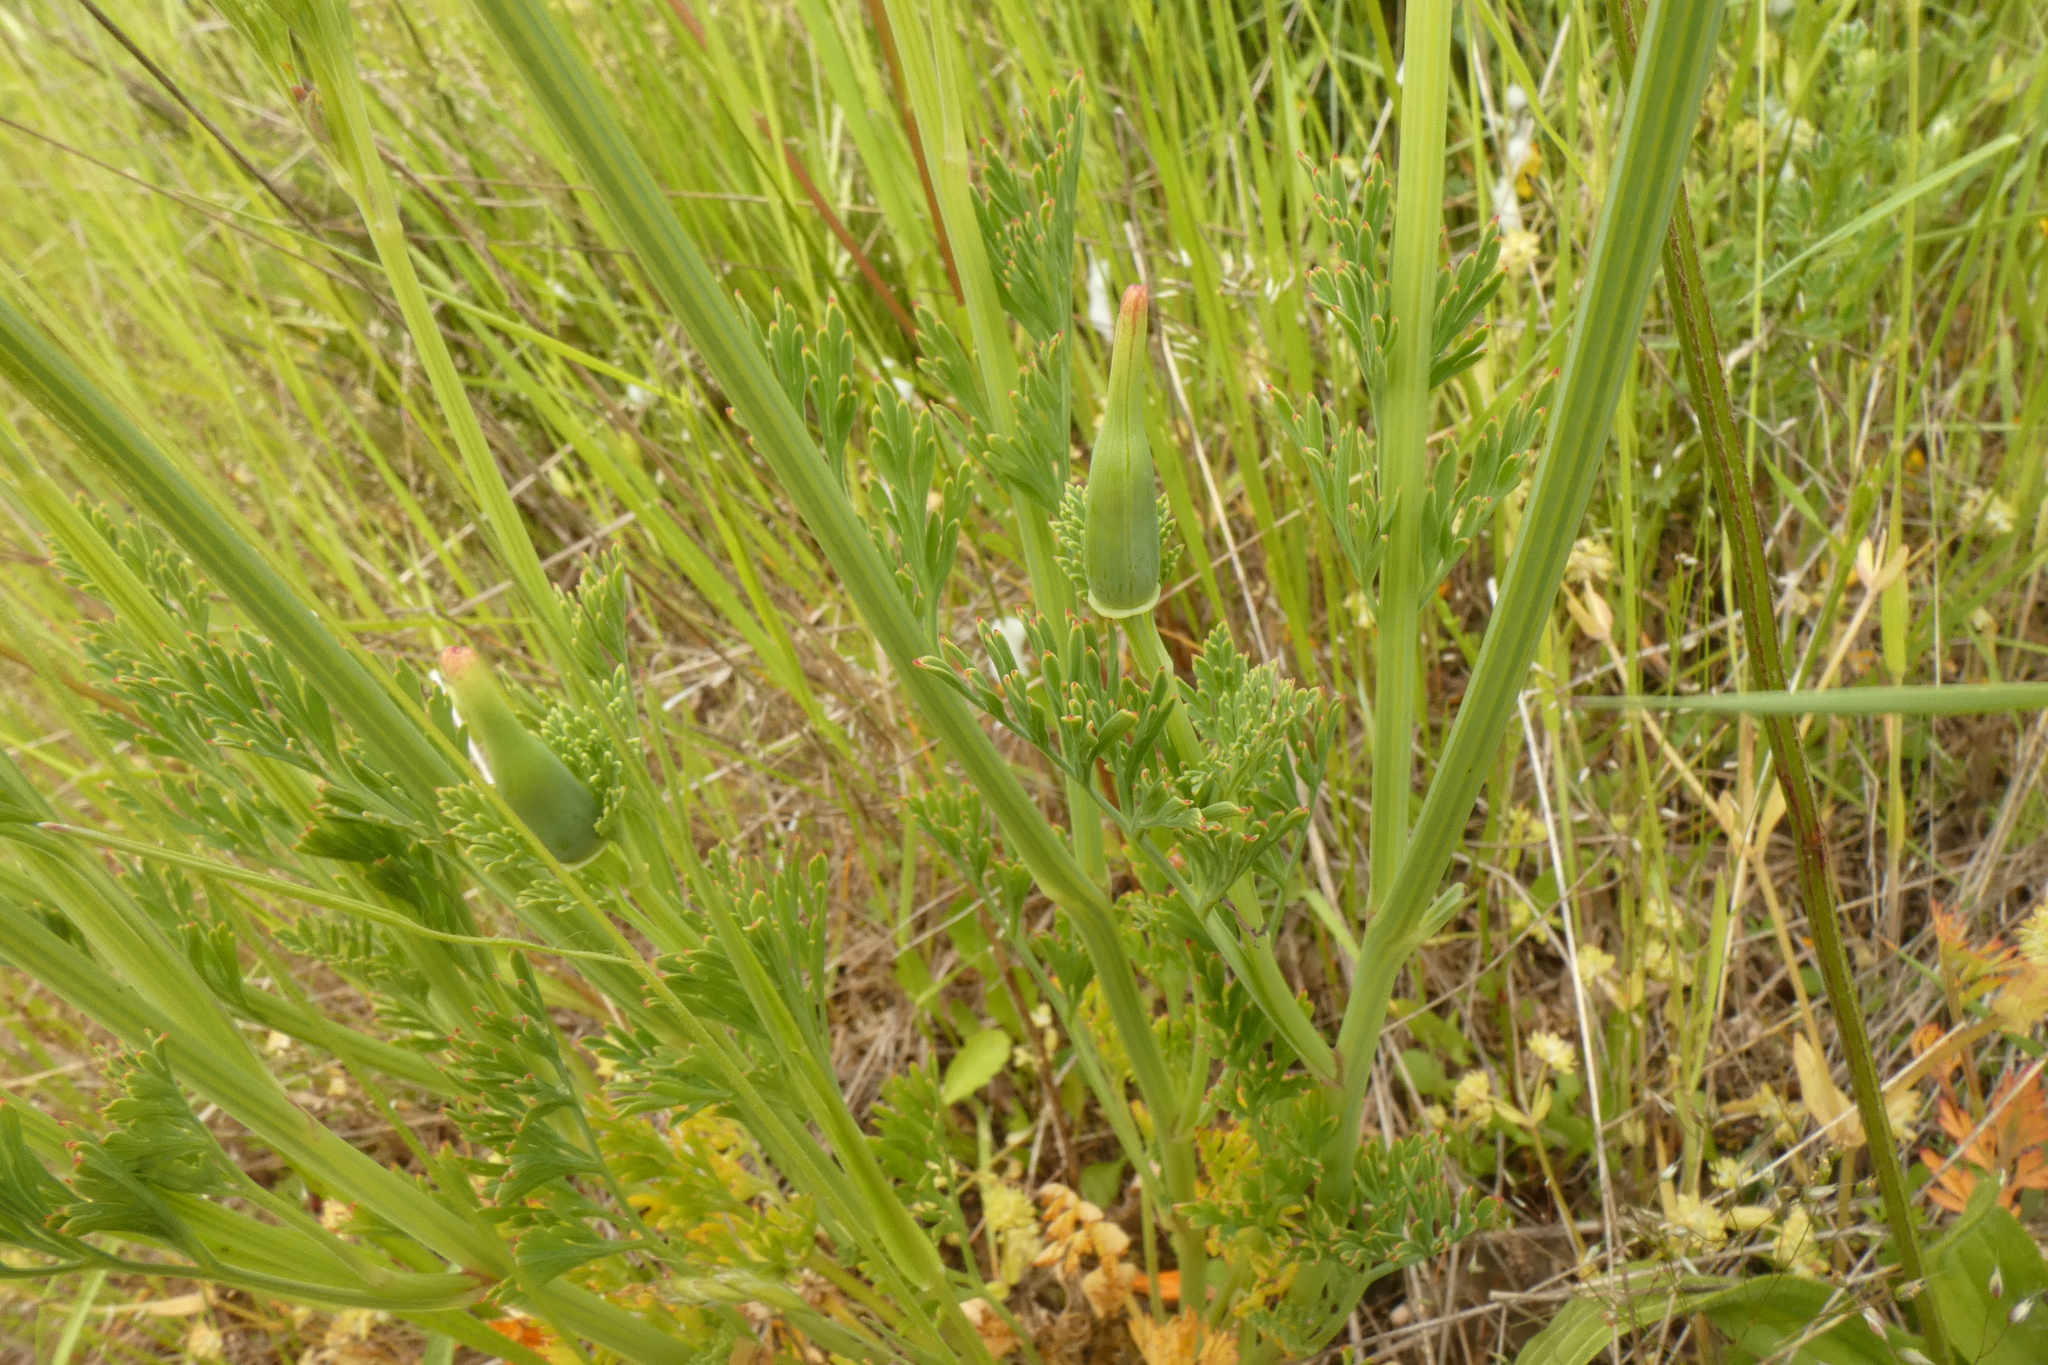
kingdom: Plantae
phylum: Tracheophyta
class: Magnoliopsida
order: Ranunculales
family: Papaveraceae
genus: Eschscholzia
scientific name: Eschscholzia californica
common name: California poppy
